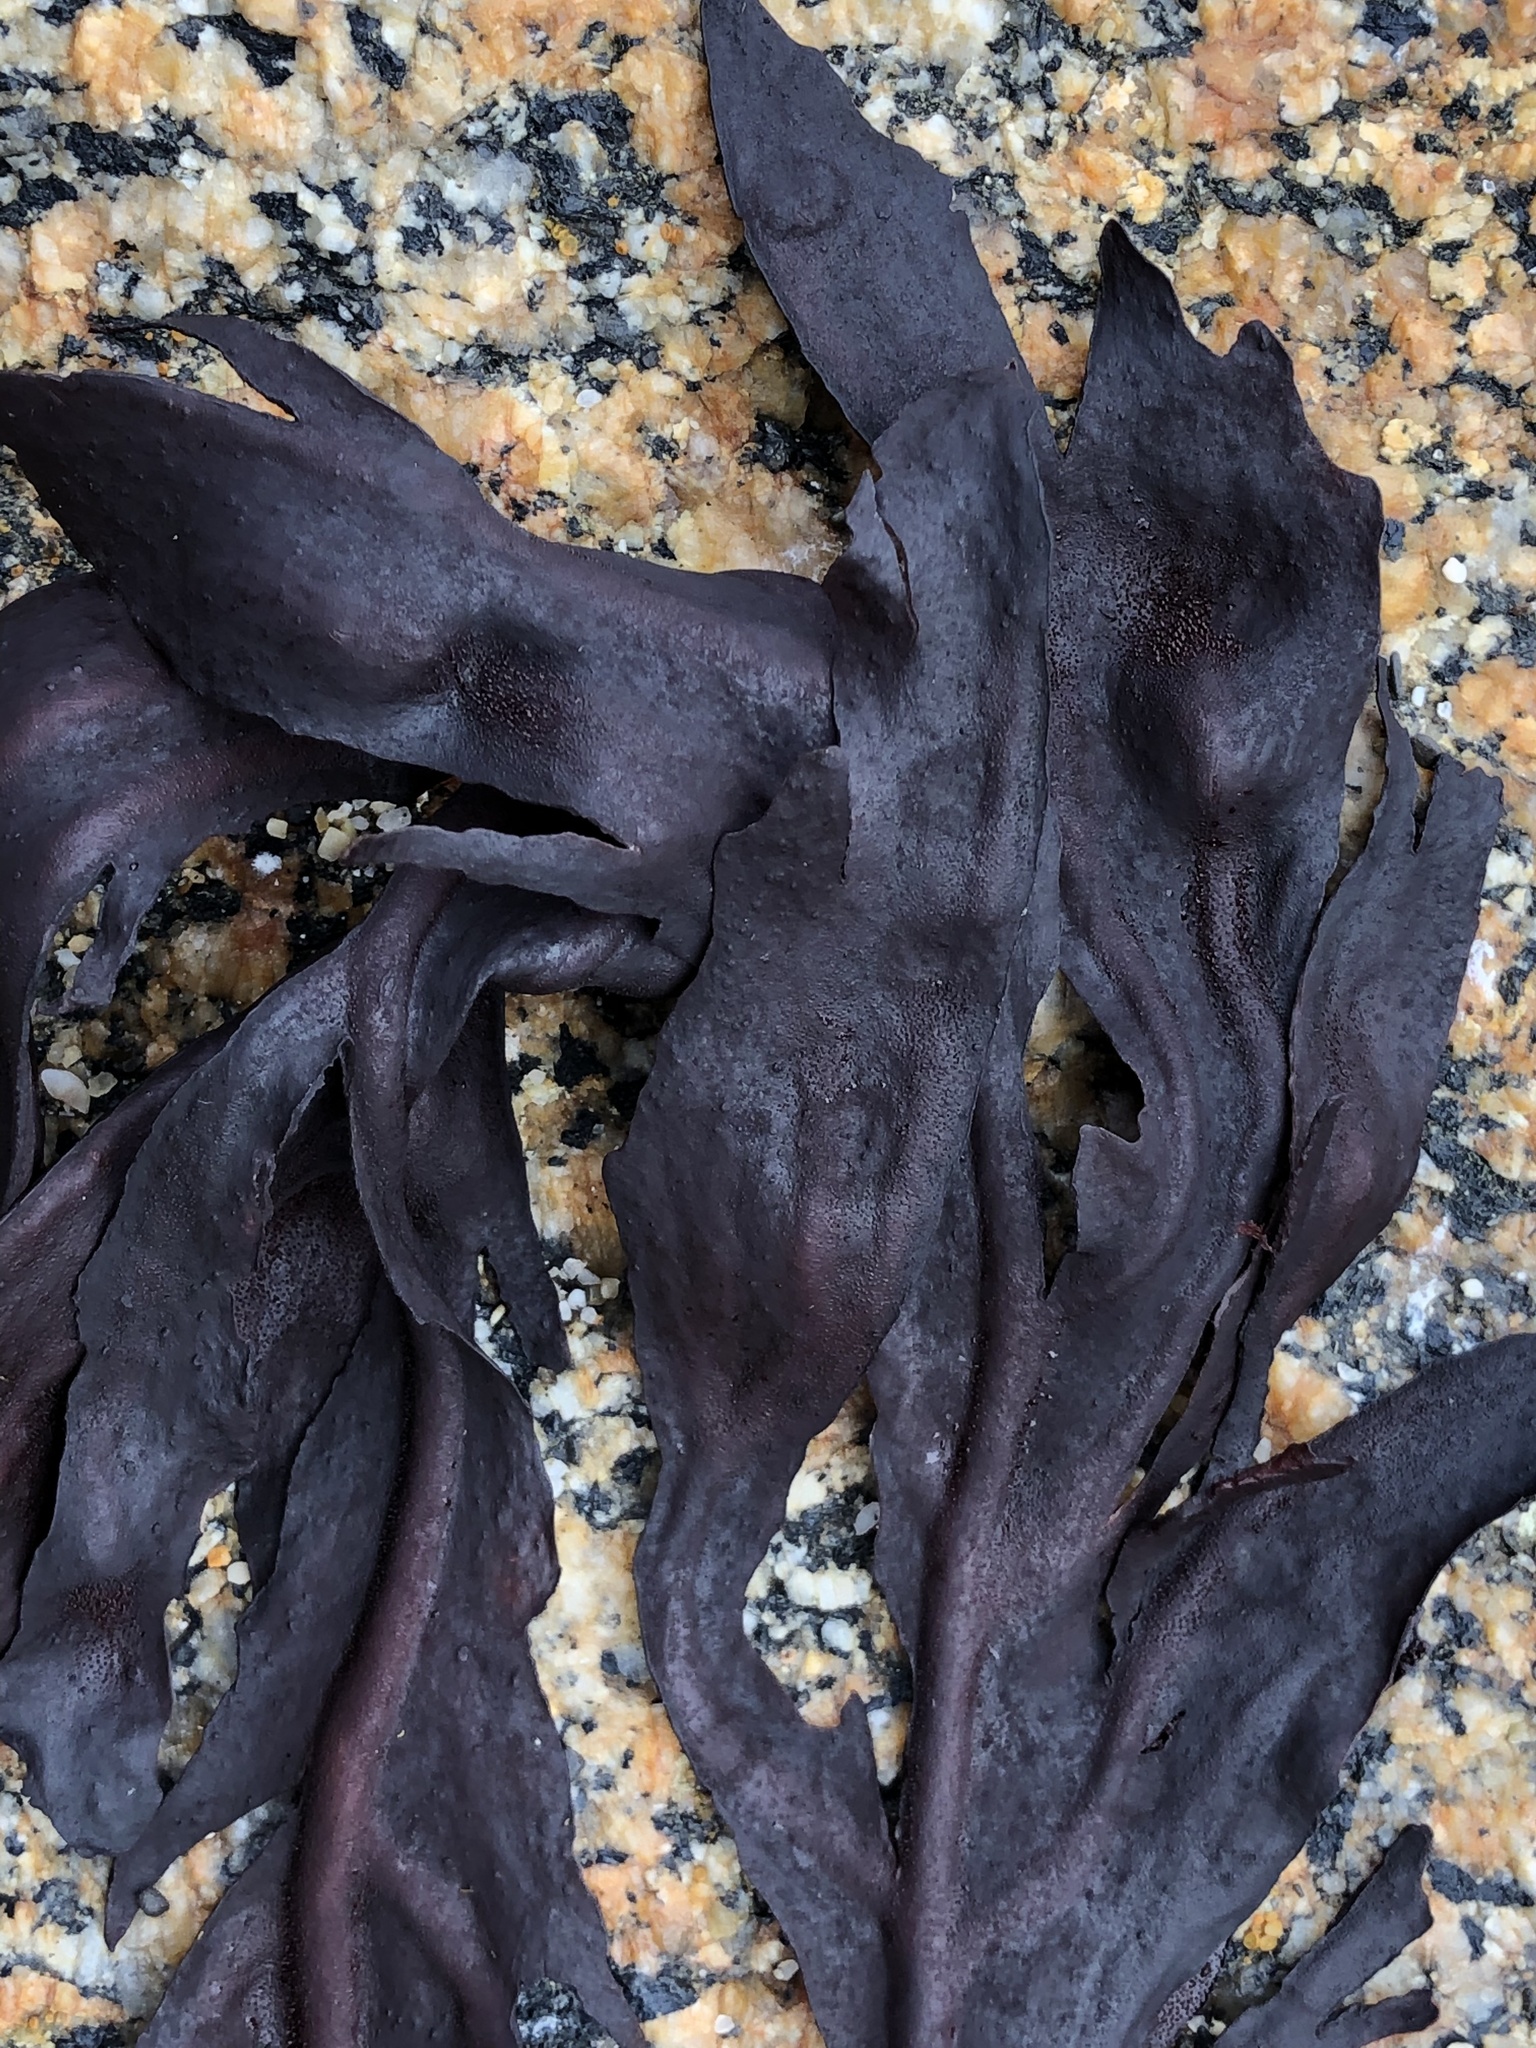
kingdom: Plantae
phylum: Rhodophyta
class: Florideophyceae
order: Gigartinales
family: Kallymeniaceae
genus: Erythrophyllum
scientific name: Erythrophyllum delesserioides
